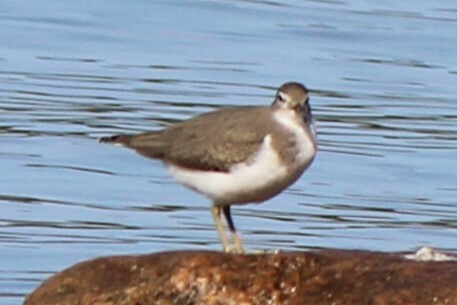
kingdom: Animalia
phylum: Chordata
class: Aves
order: Charadriiformes
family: Scolopacidae
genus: Actitis
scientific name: Actitis macularius
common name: Spotted sandpiper
